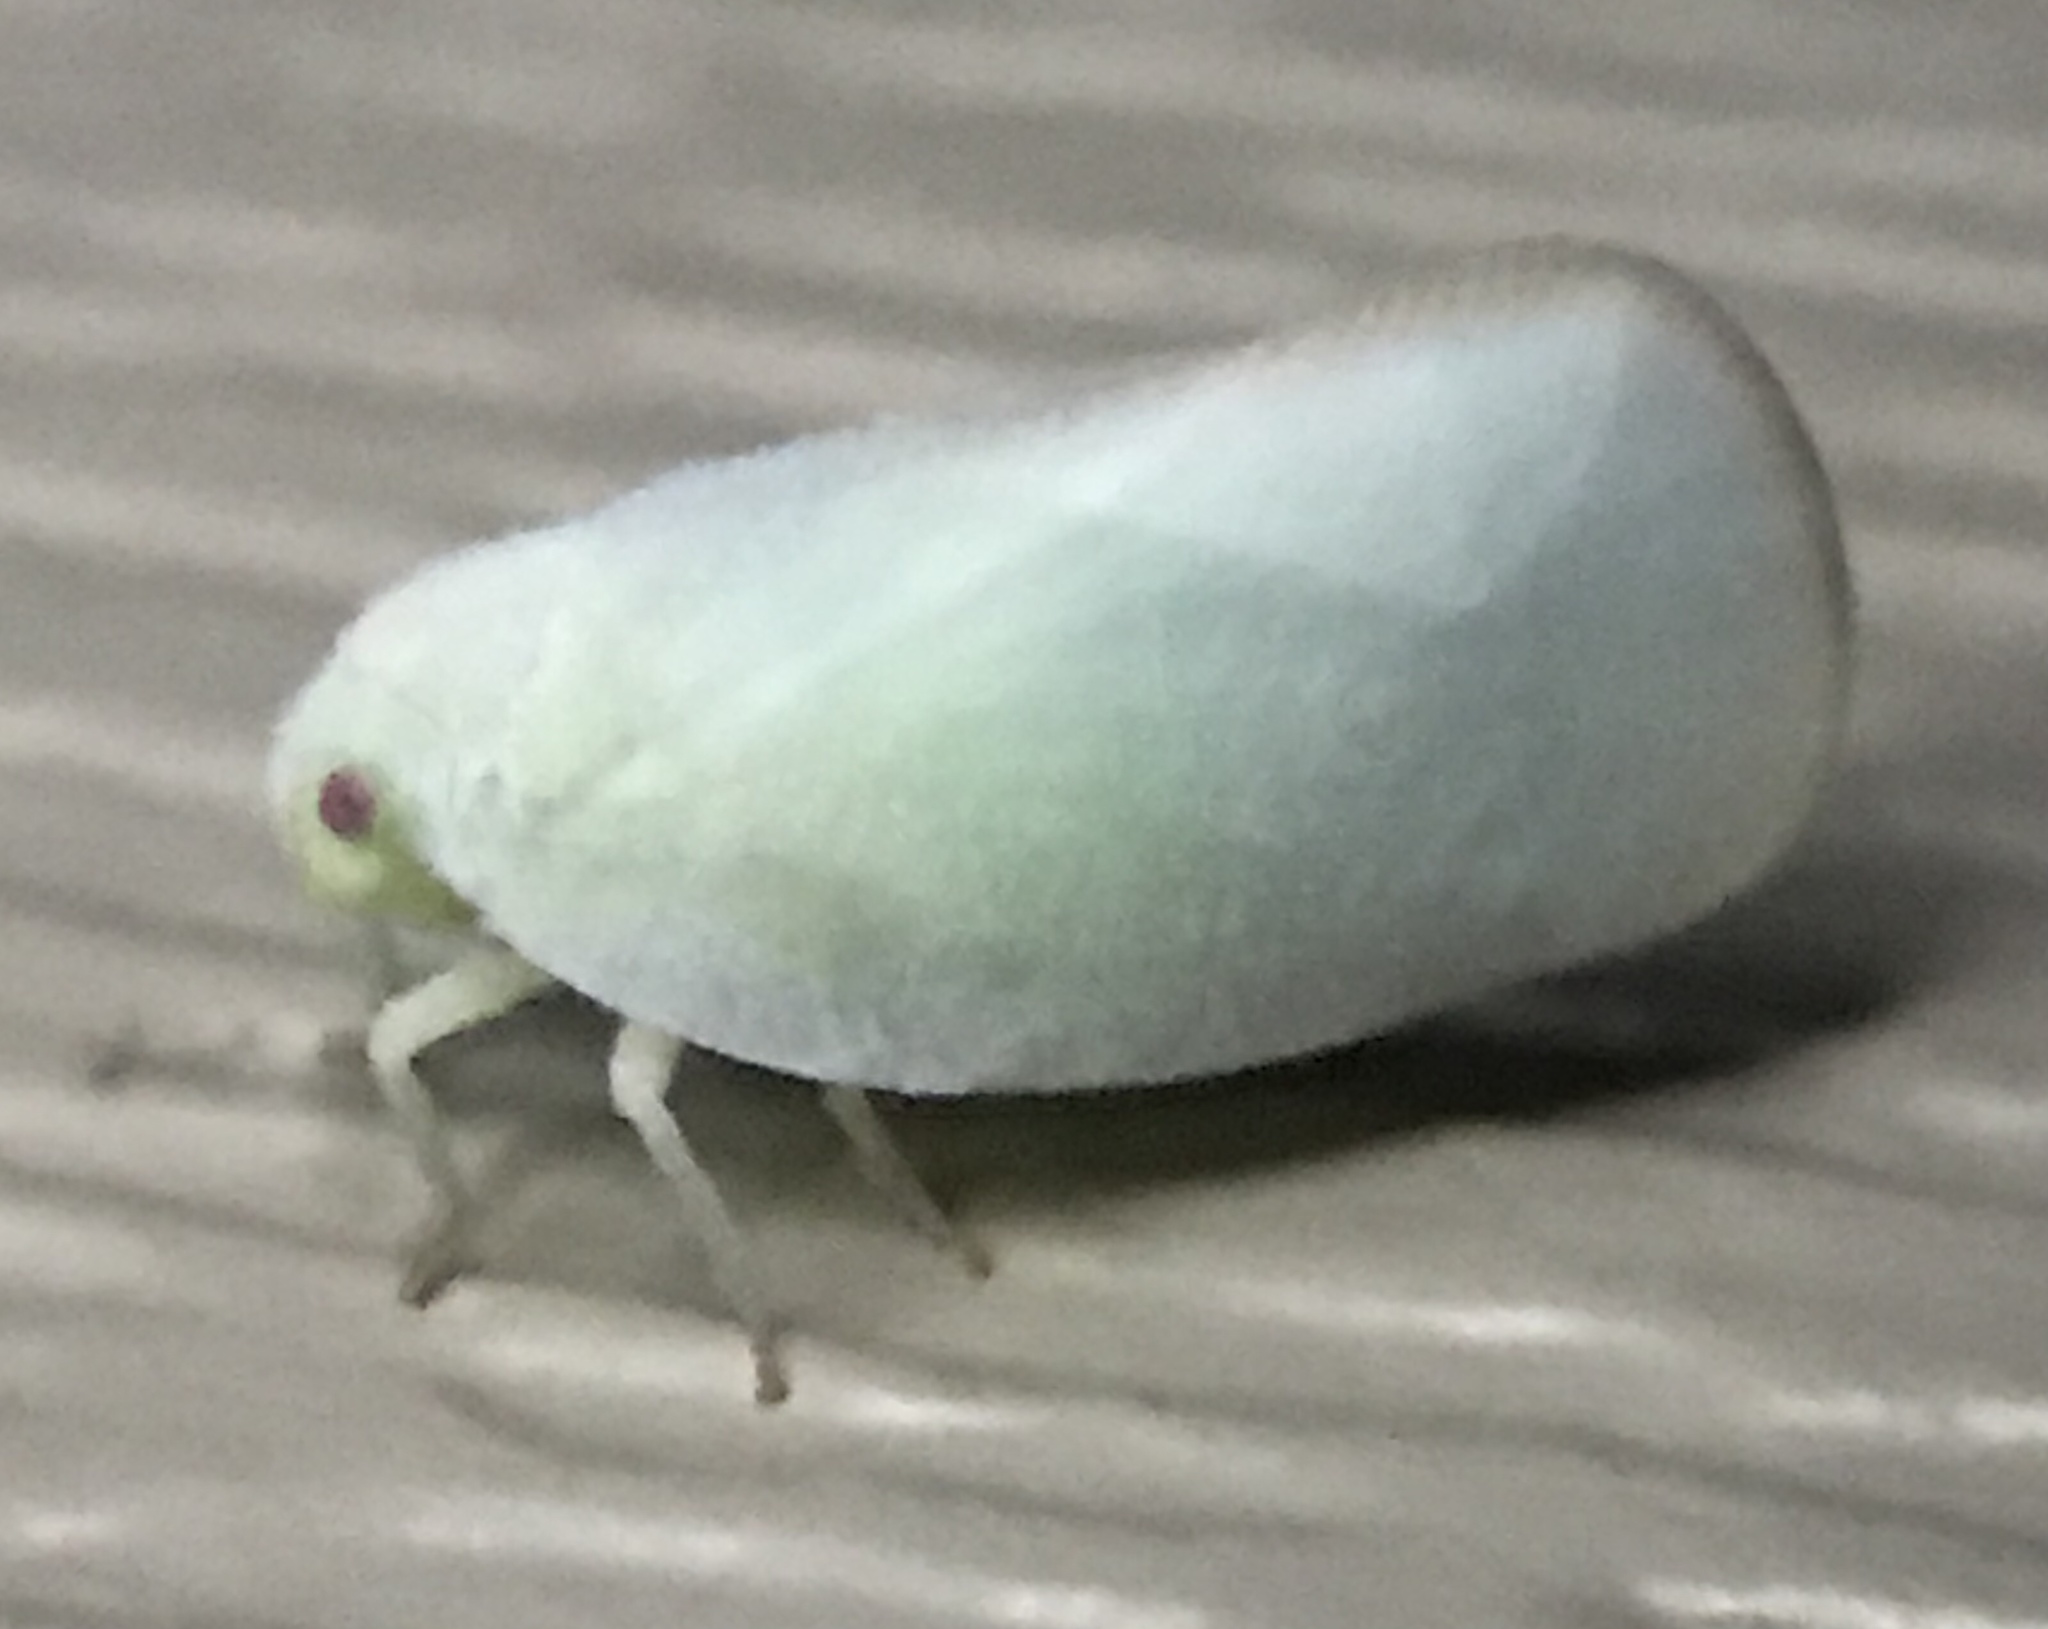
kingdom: Animalia
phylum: Arthropoda
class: Insecta
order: Hemiptera
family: Flatidae
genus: Ormenoides
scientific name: Ormenoides venusta
